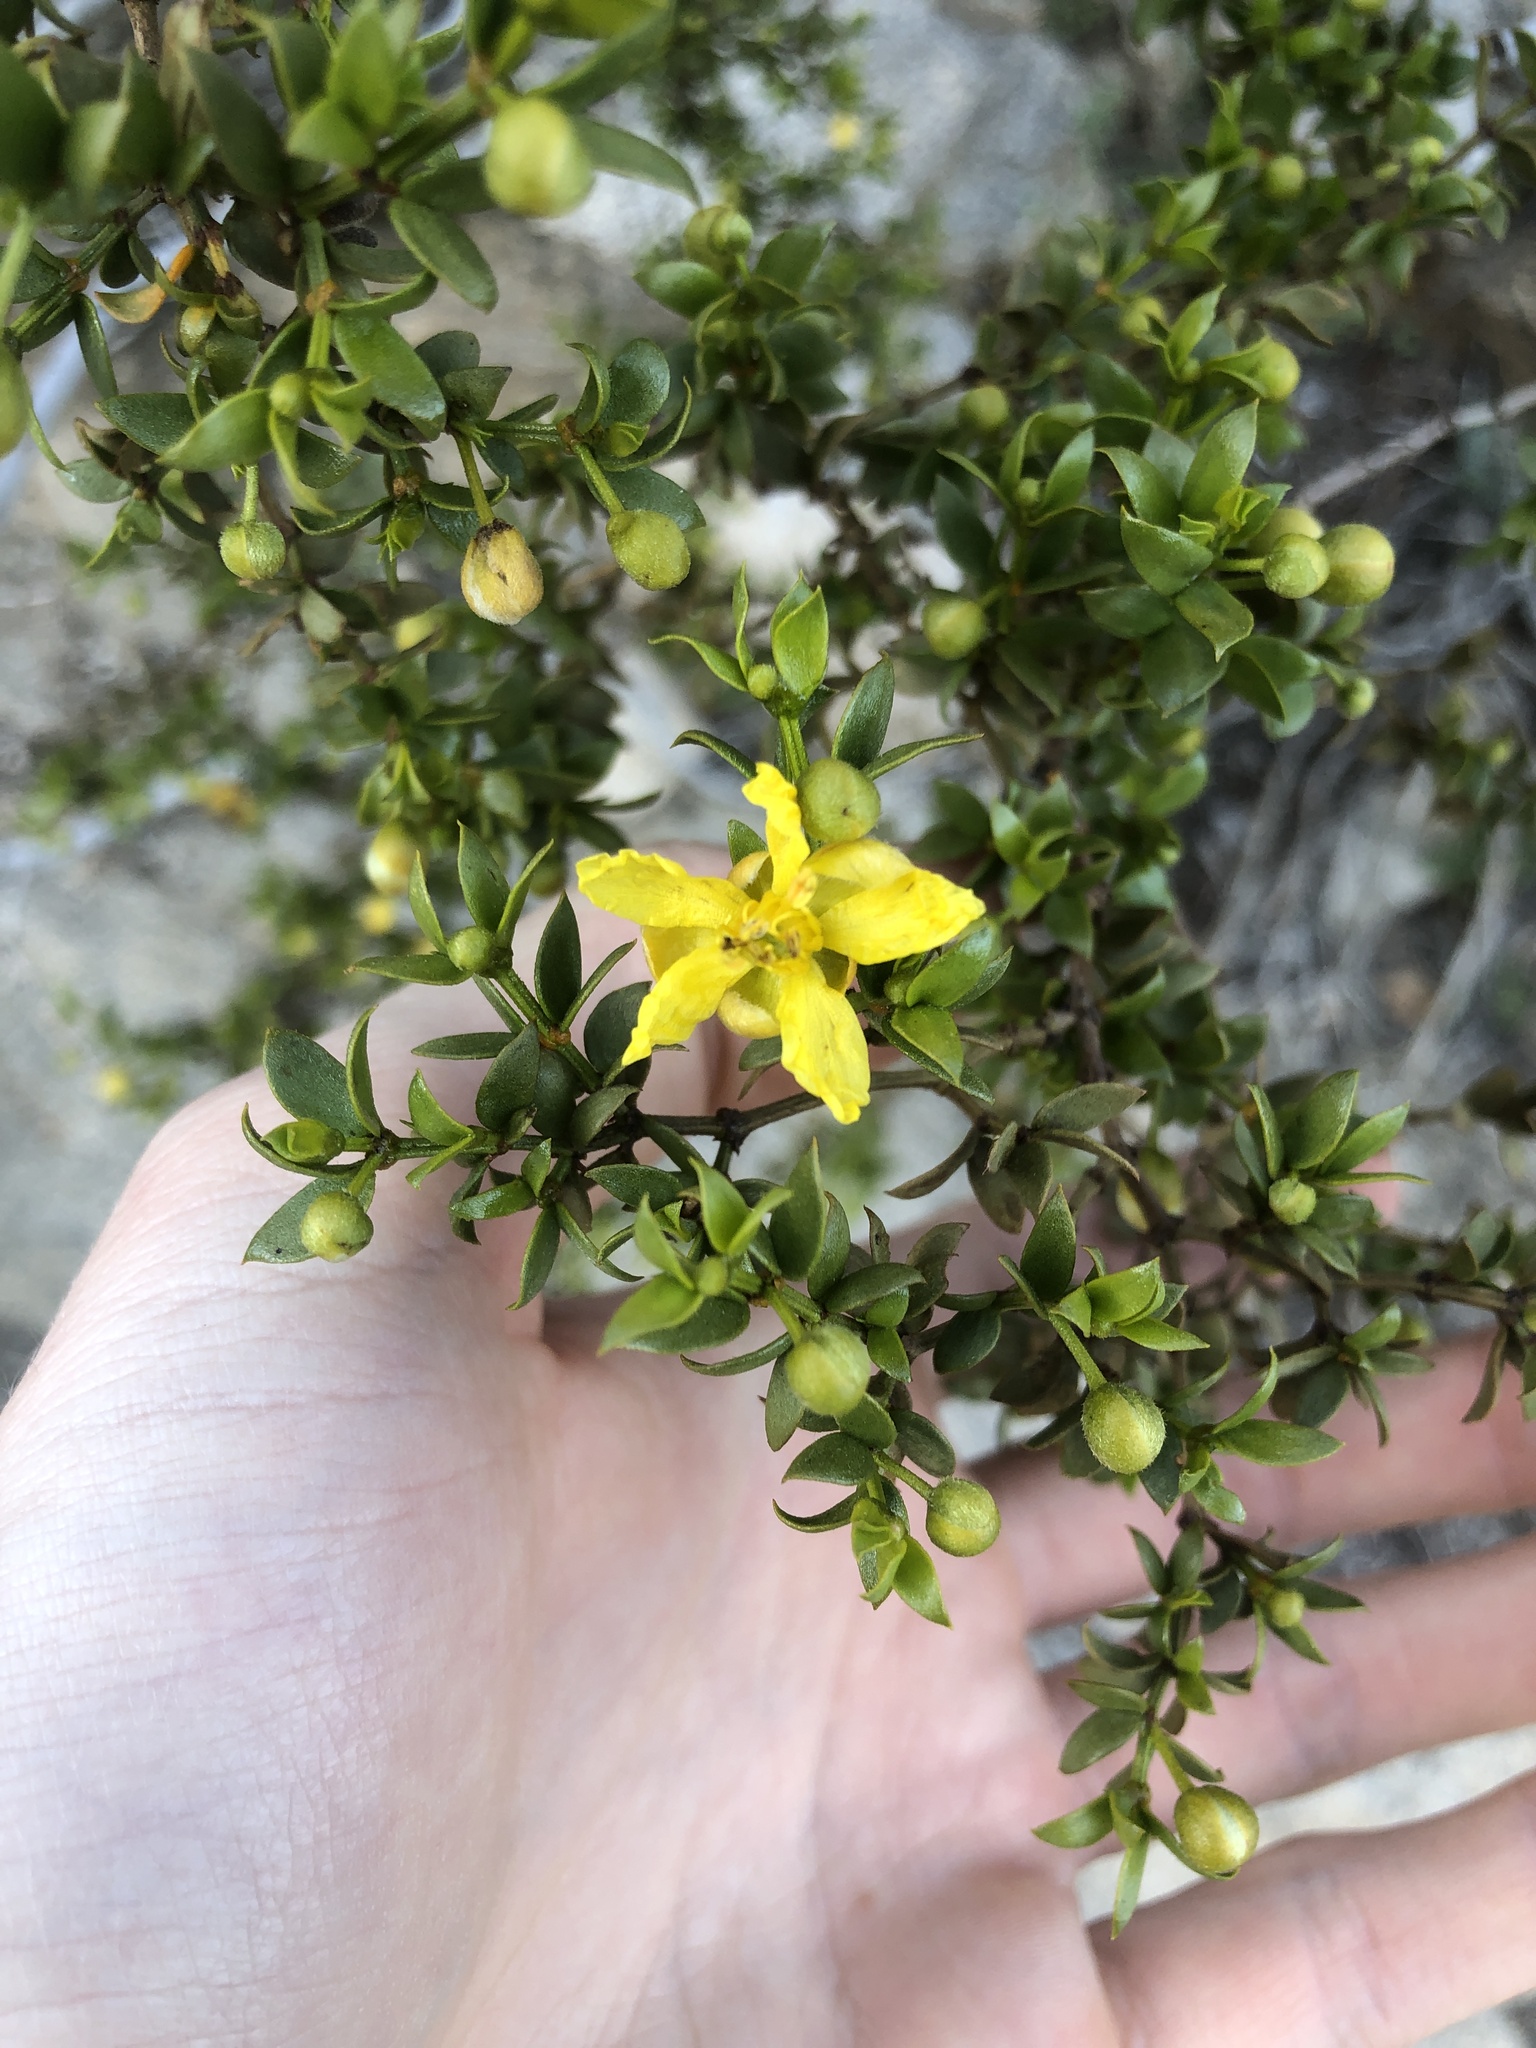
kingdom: Plantae
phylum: Tracheophyta
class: Magnoliopsida
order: Zygophyllales
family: Zygophyllaceae
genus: Larrea
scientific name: Larrea tridentata
